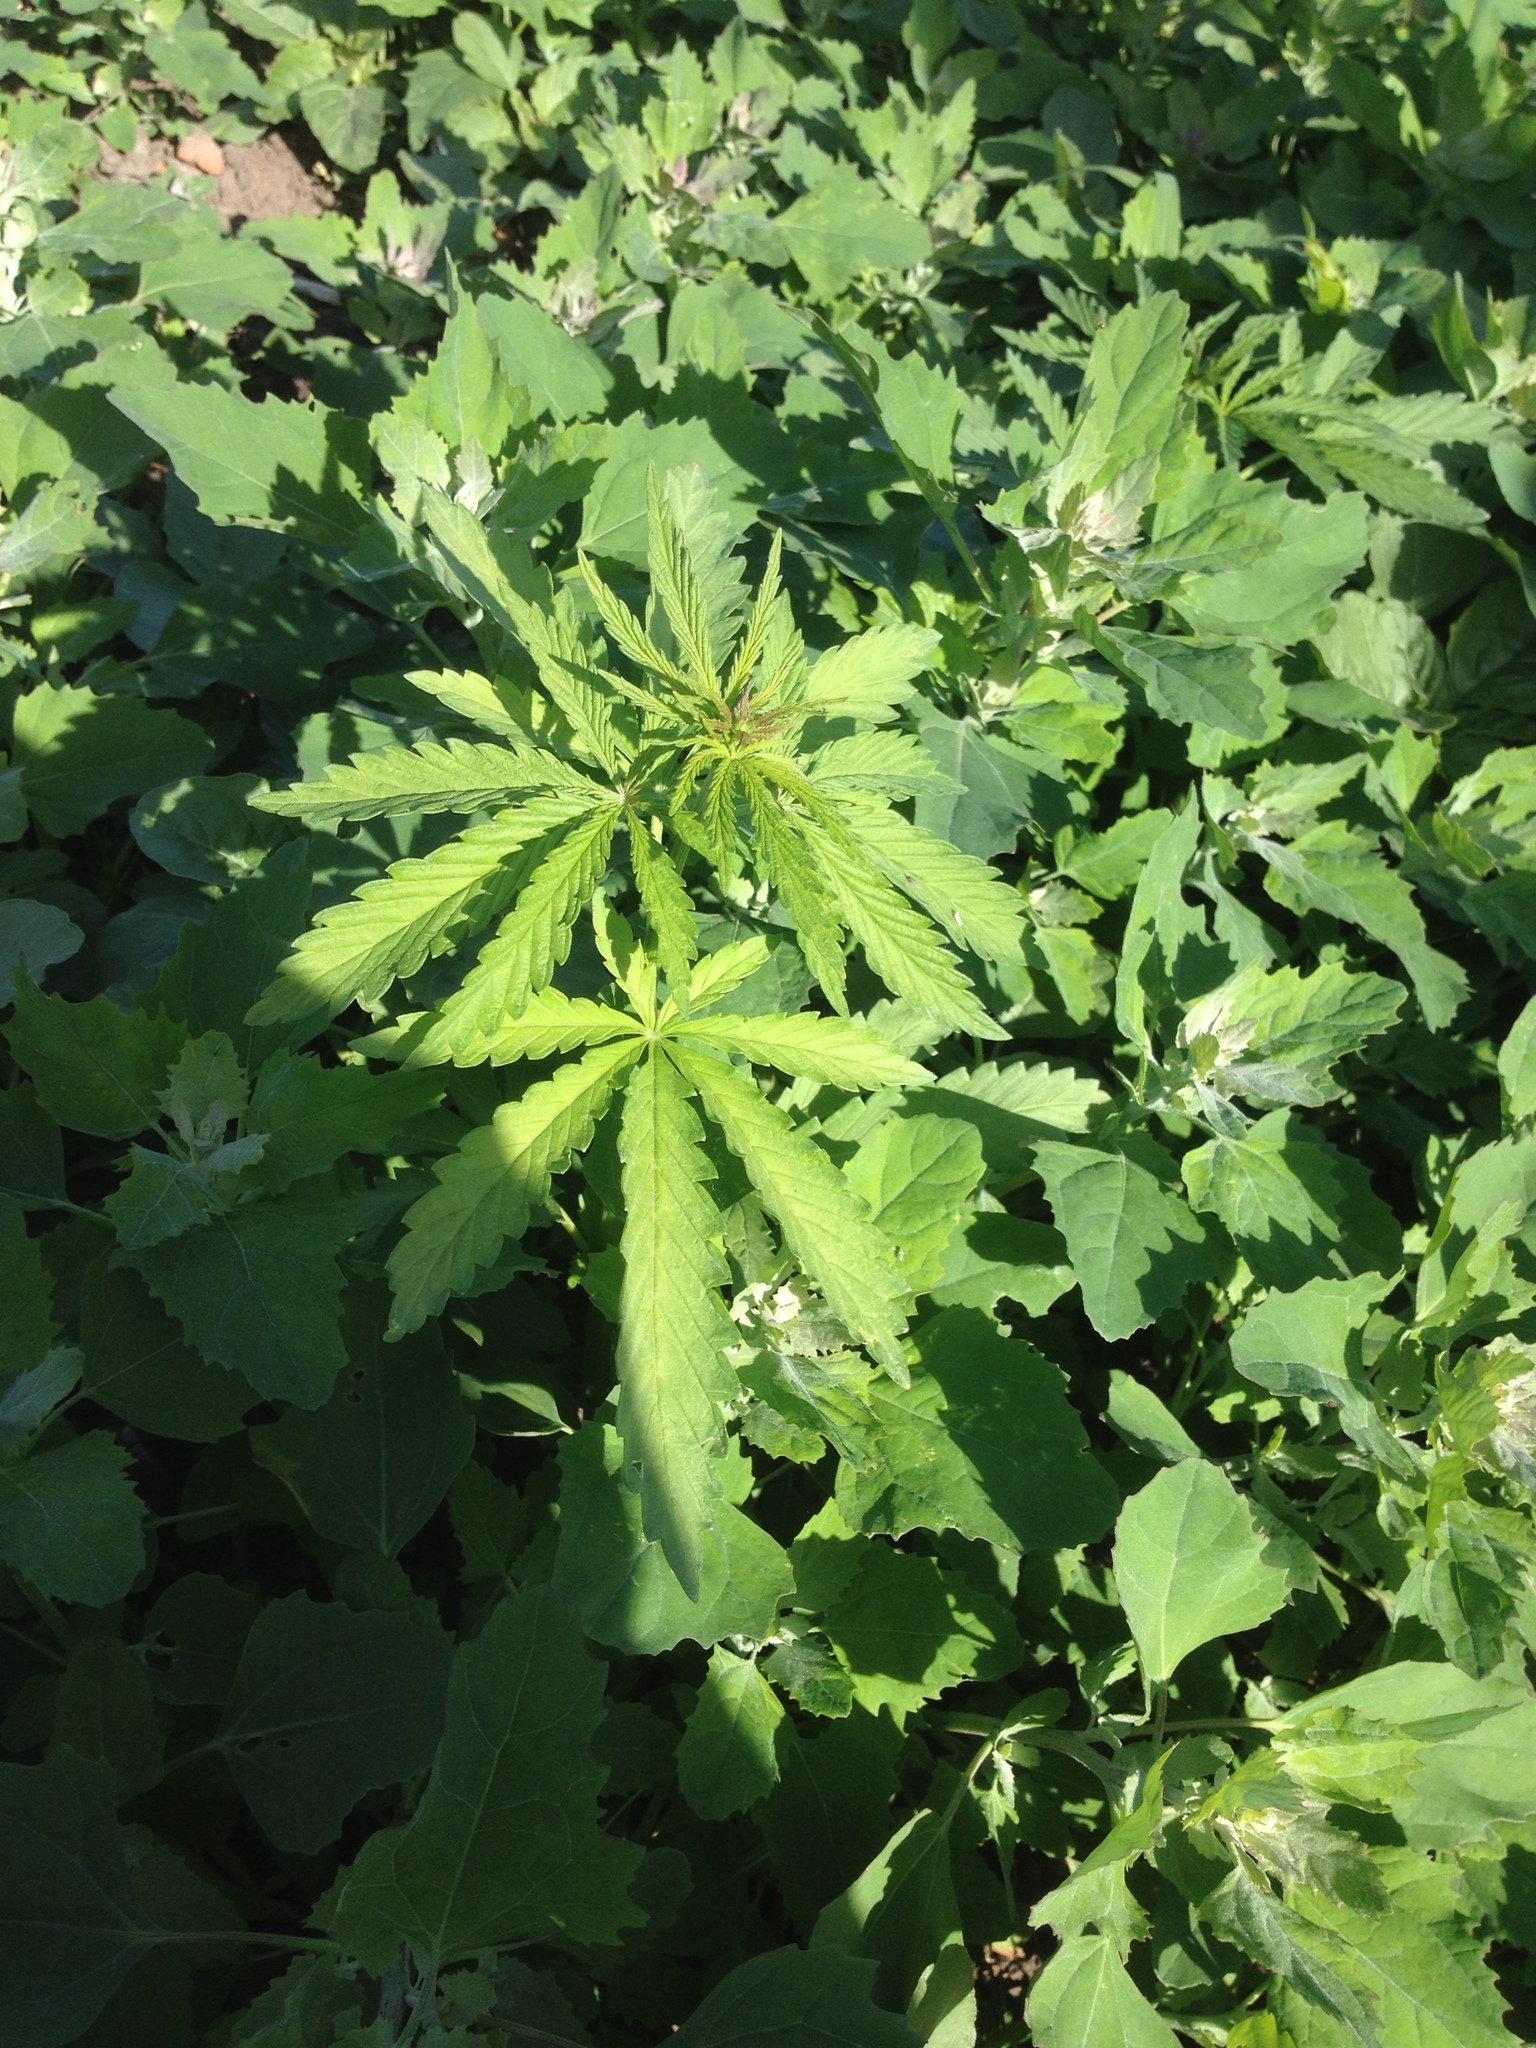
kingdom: Plantae
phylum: Tracheophyta
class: Magnoliopsida
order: Rosales
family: Cannabaceae
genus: Cannabis
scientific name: Cannabis sativa
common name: Hemp
